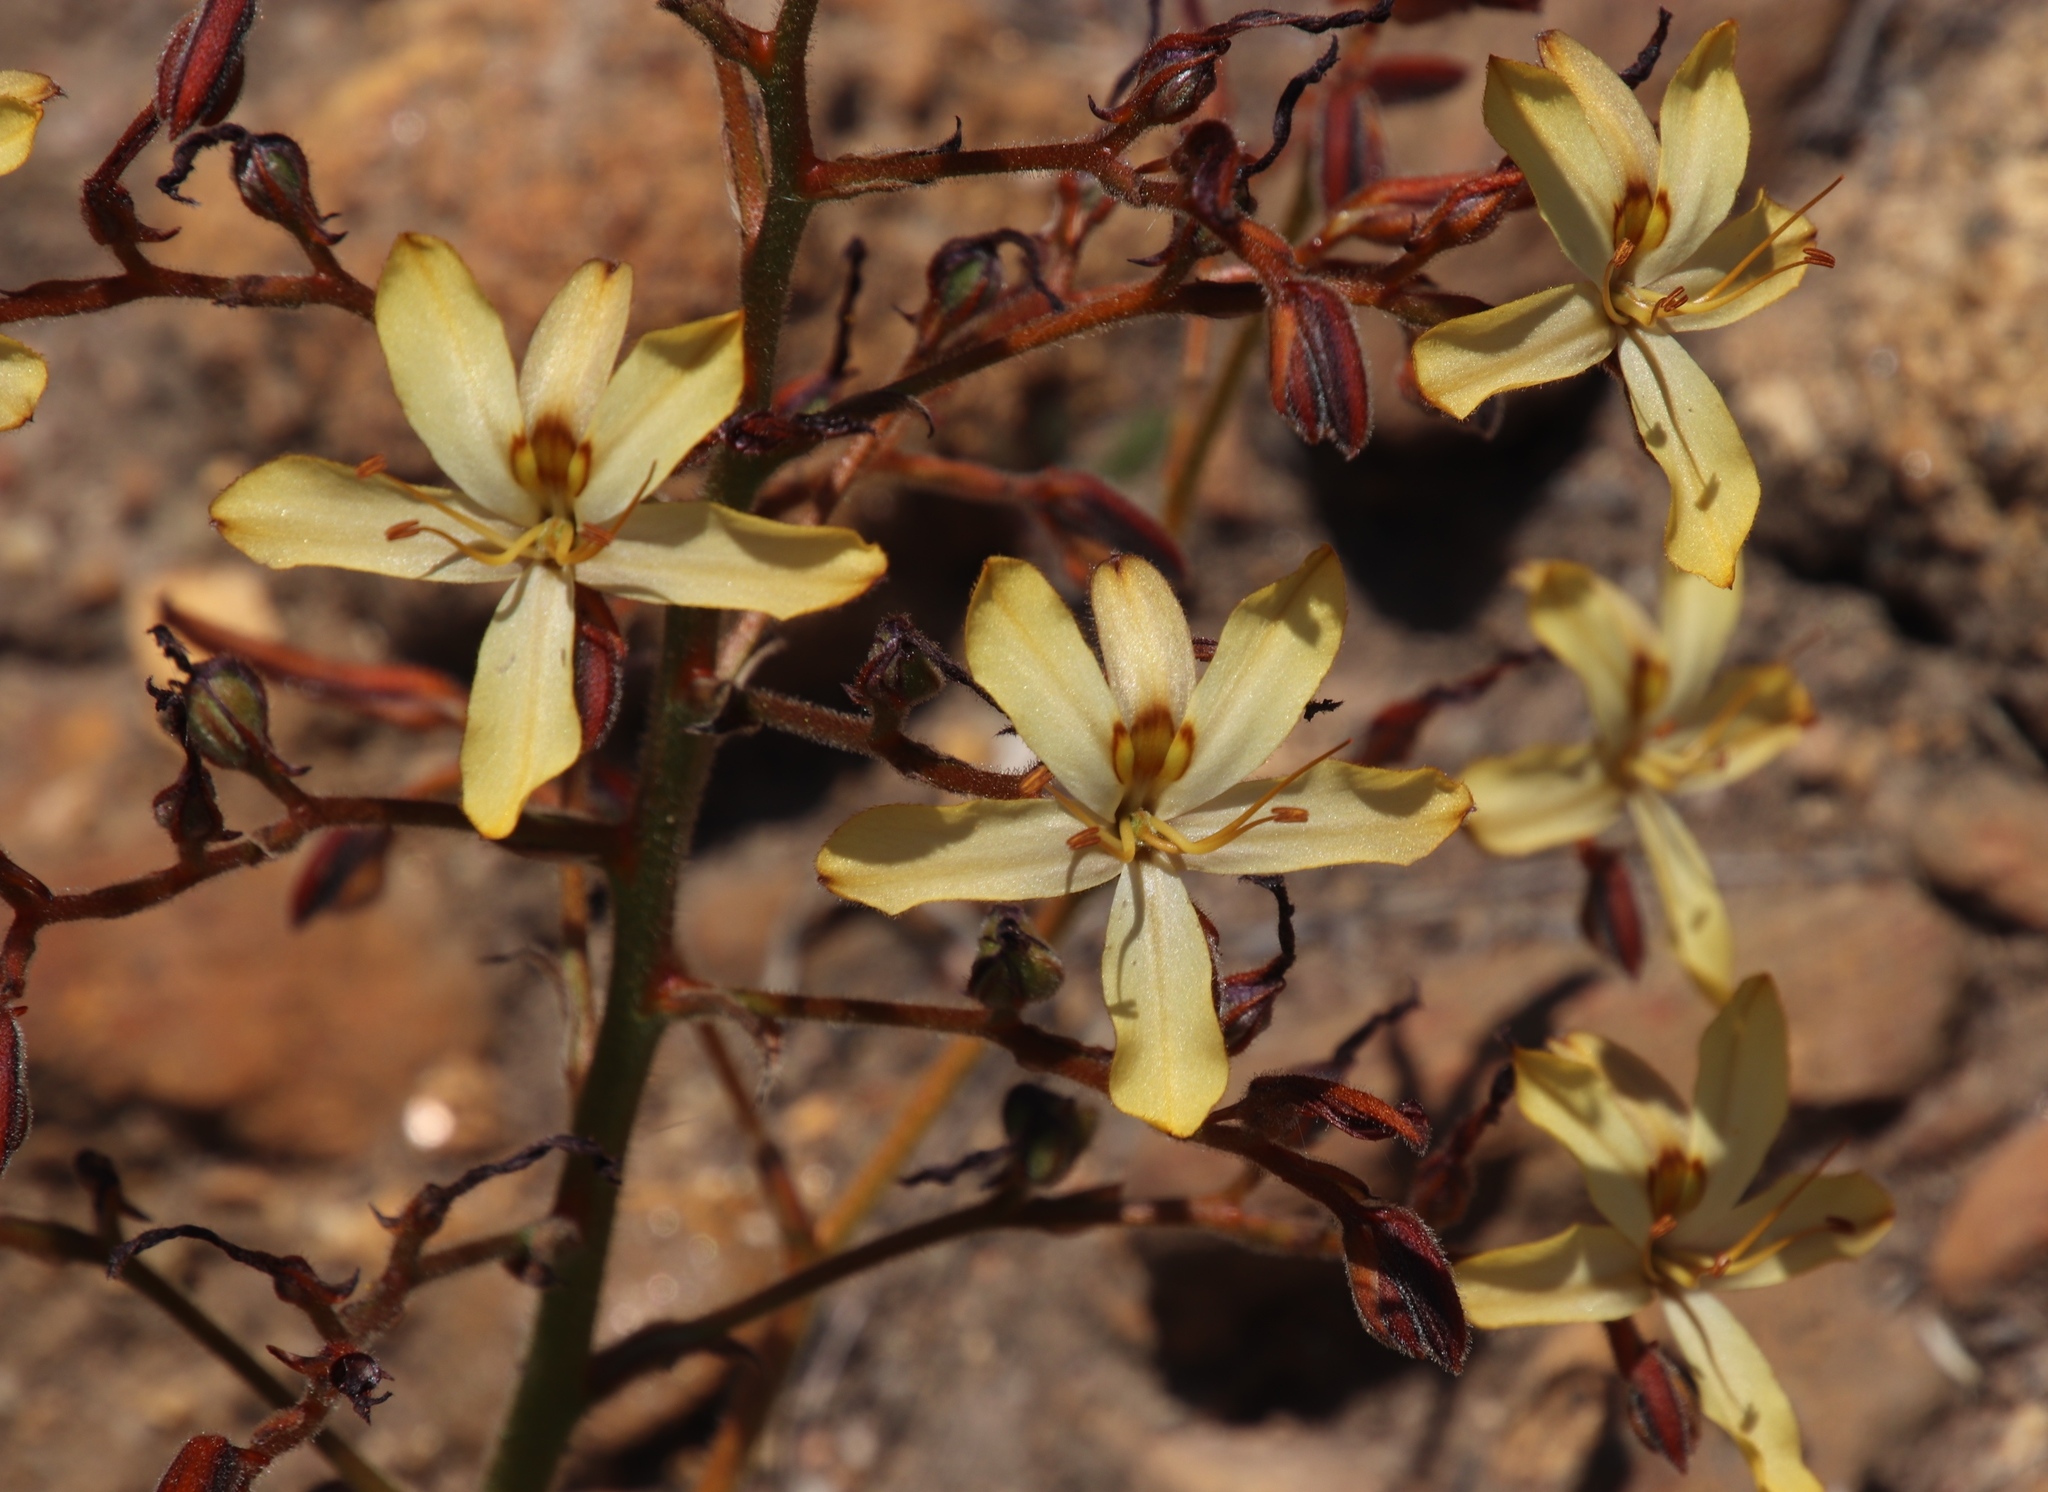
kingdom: Plantae
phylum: Tracheophyta
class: Liliopsida
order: Commelinales
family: Haemodoraceae
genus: Wachendorfia
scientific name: Wachendorfia paniculata
